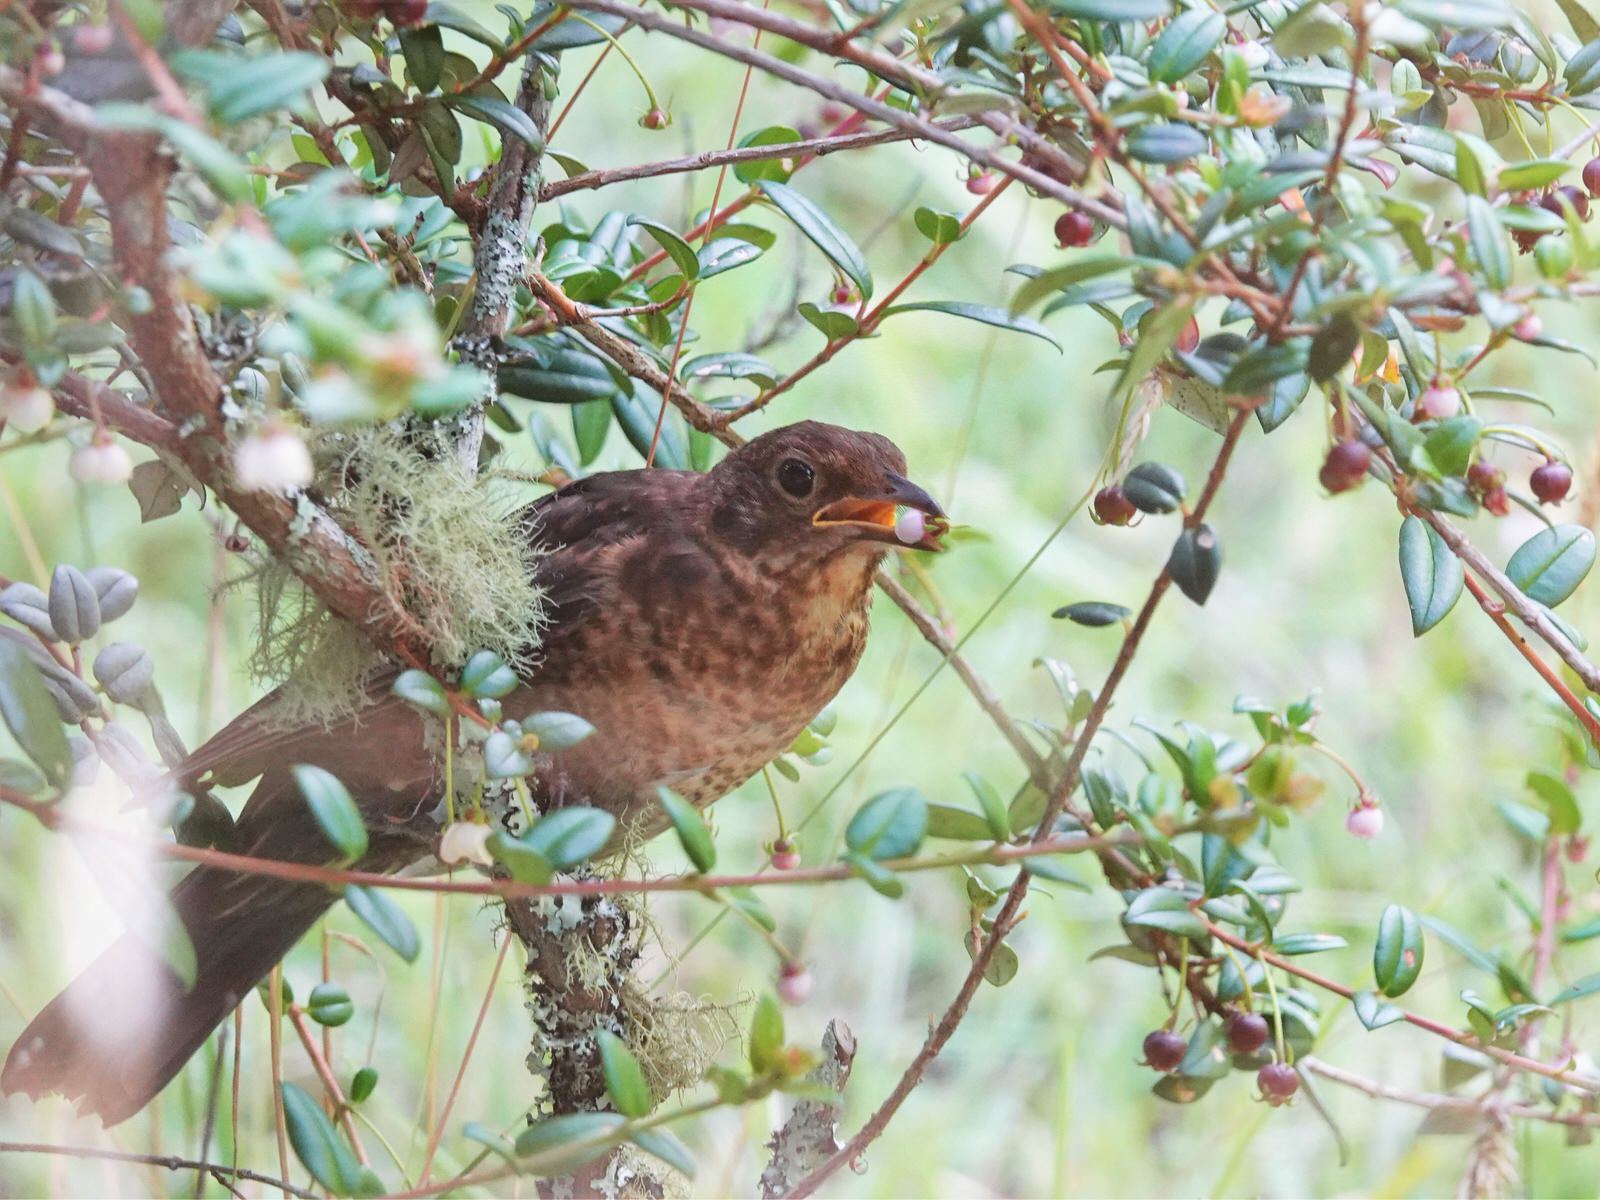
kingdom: Animalia
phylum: Chordata
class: Aves
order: Passeriformes
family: Turdidae
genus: Turdus
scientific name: Turdus merula
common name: Common blackbird
